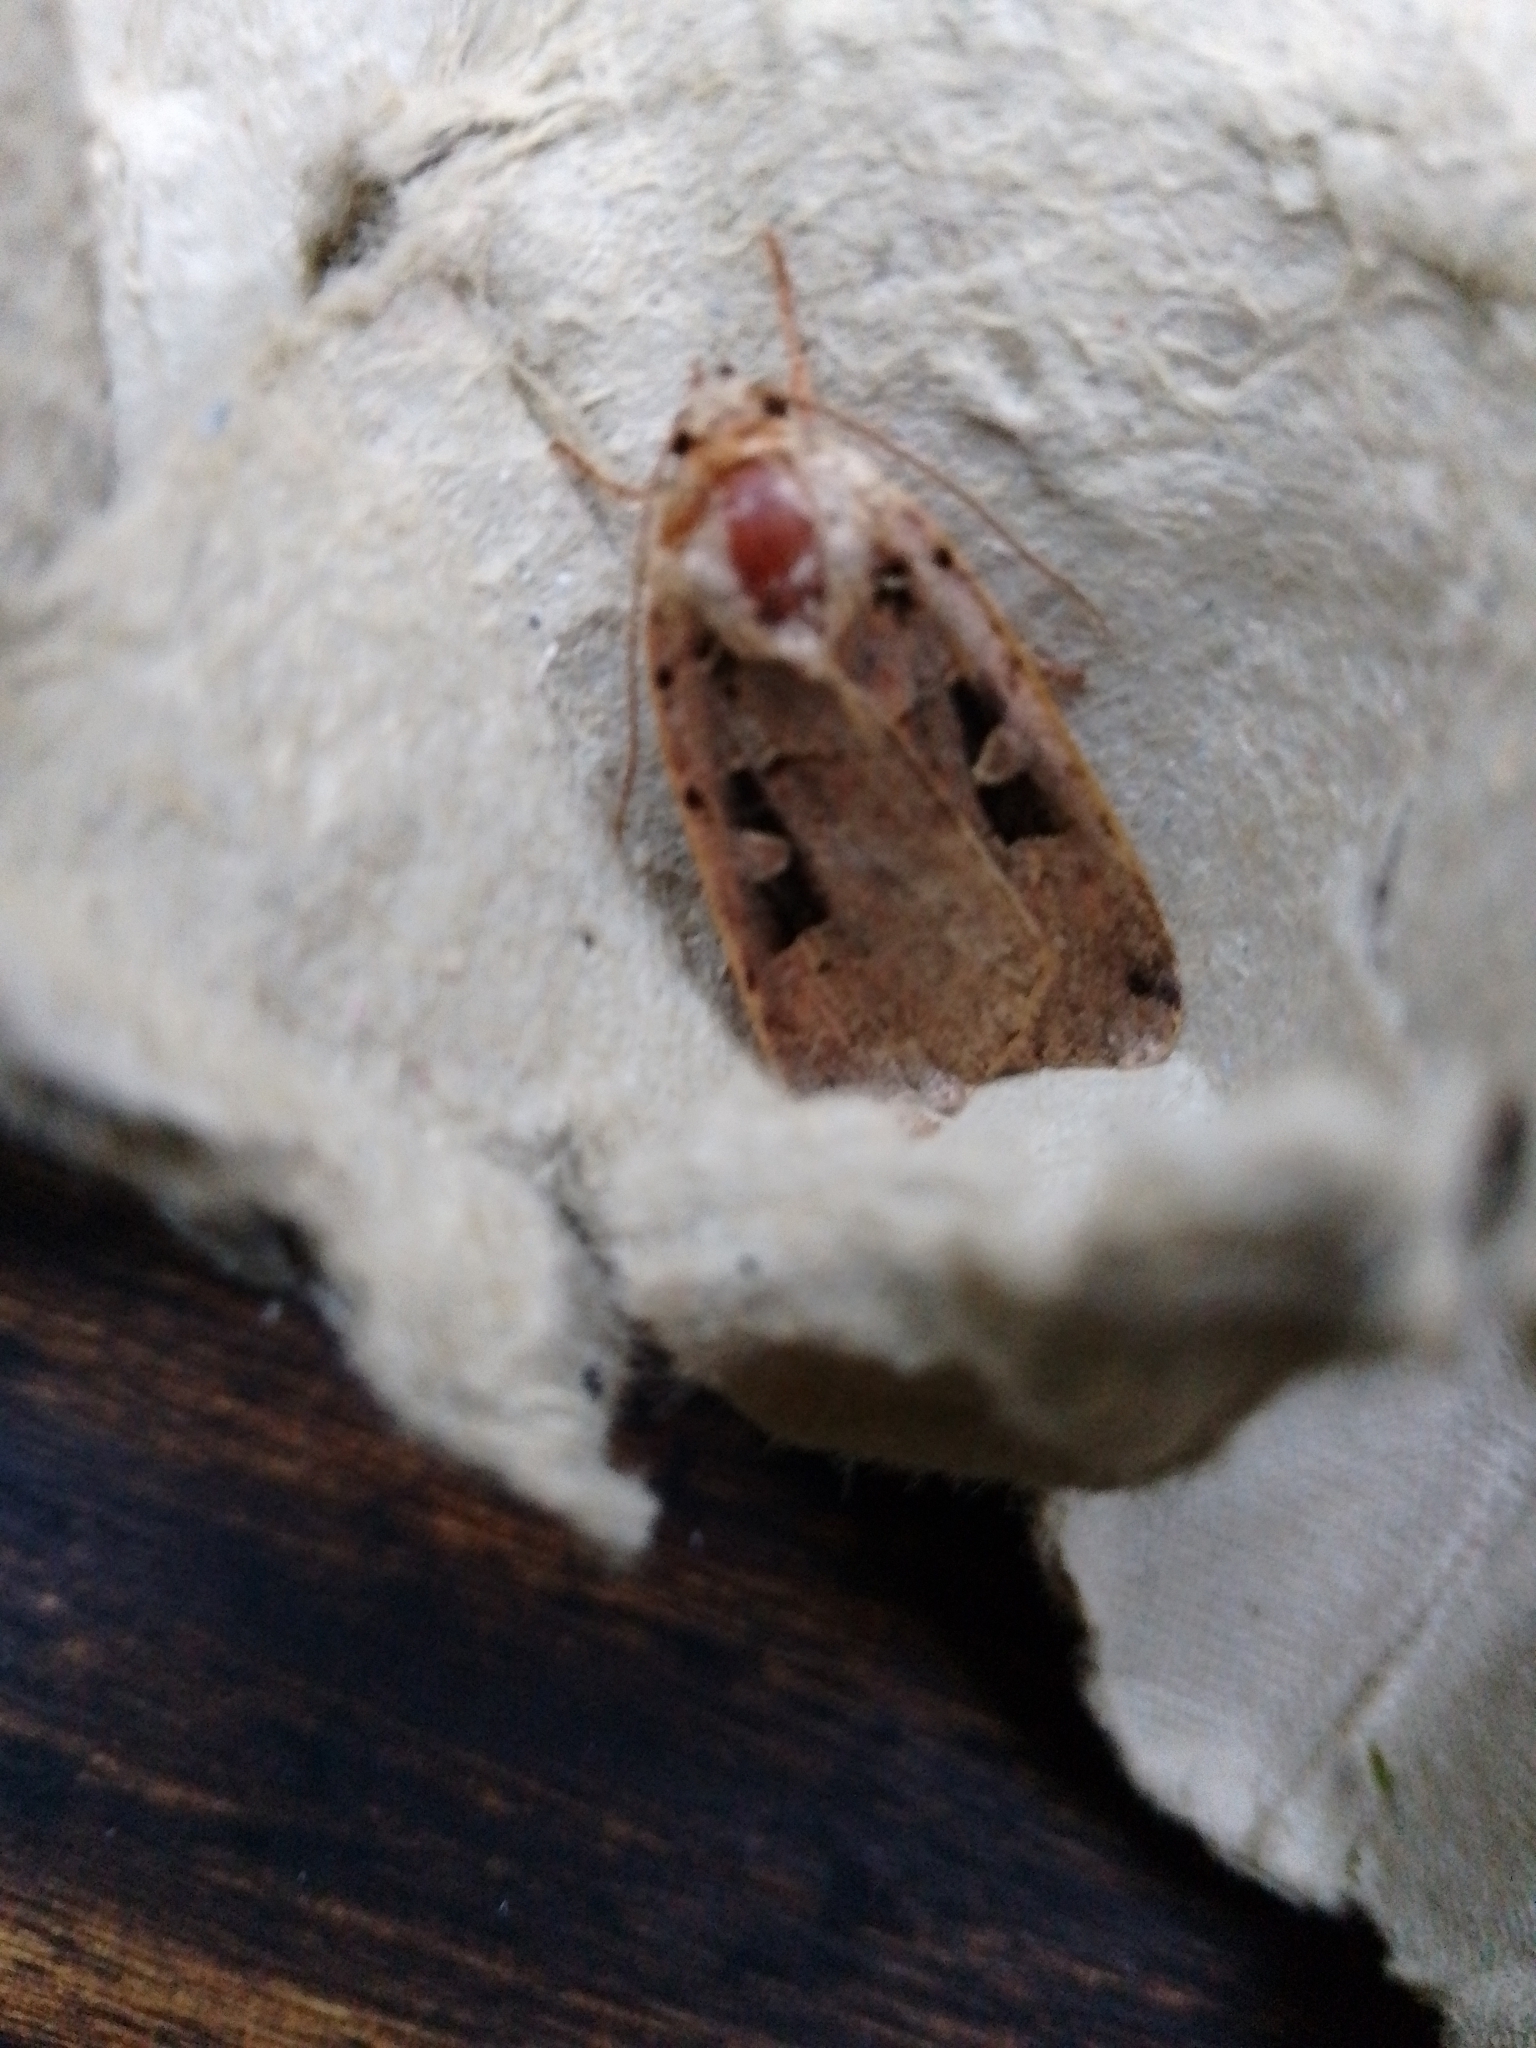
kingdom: Animalia
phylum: Arthropoda
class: Insecta
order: Lepidoptera
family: Noctuidae
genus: Xestia
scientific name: Xestia triangulum
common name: Double square-spot
